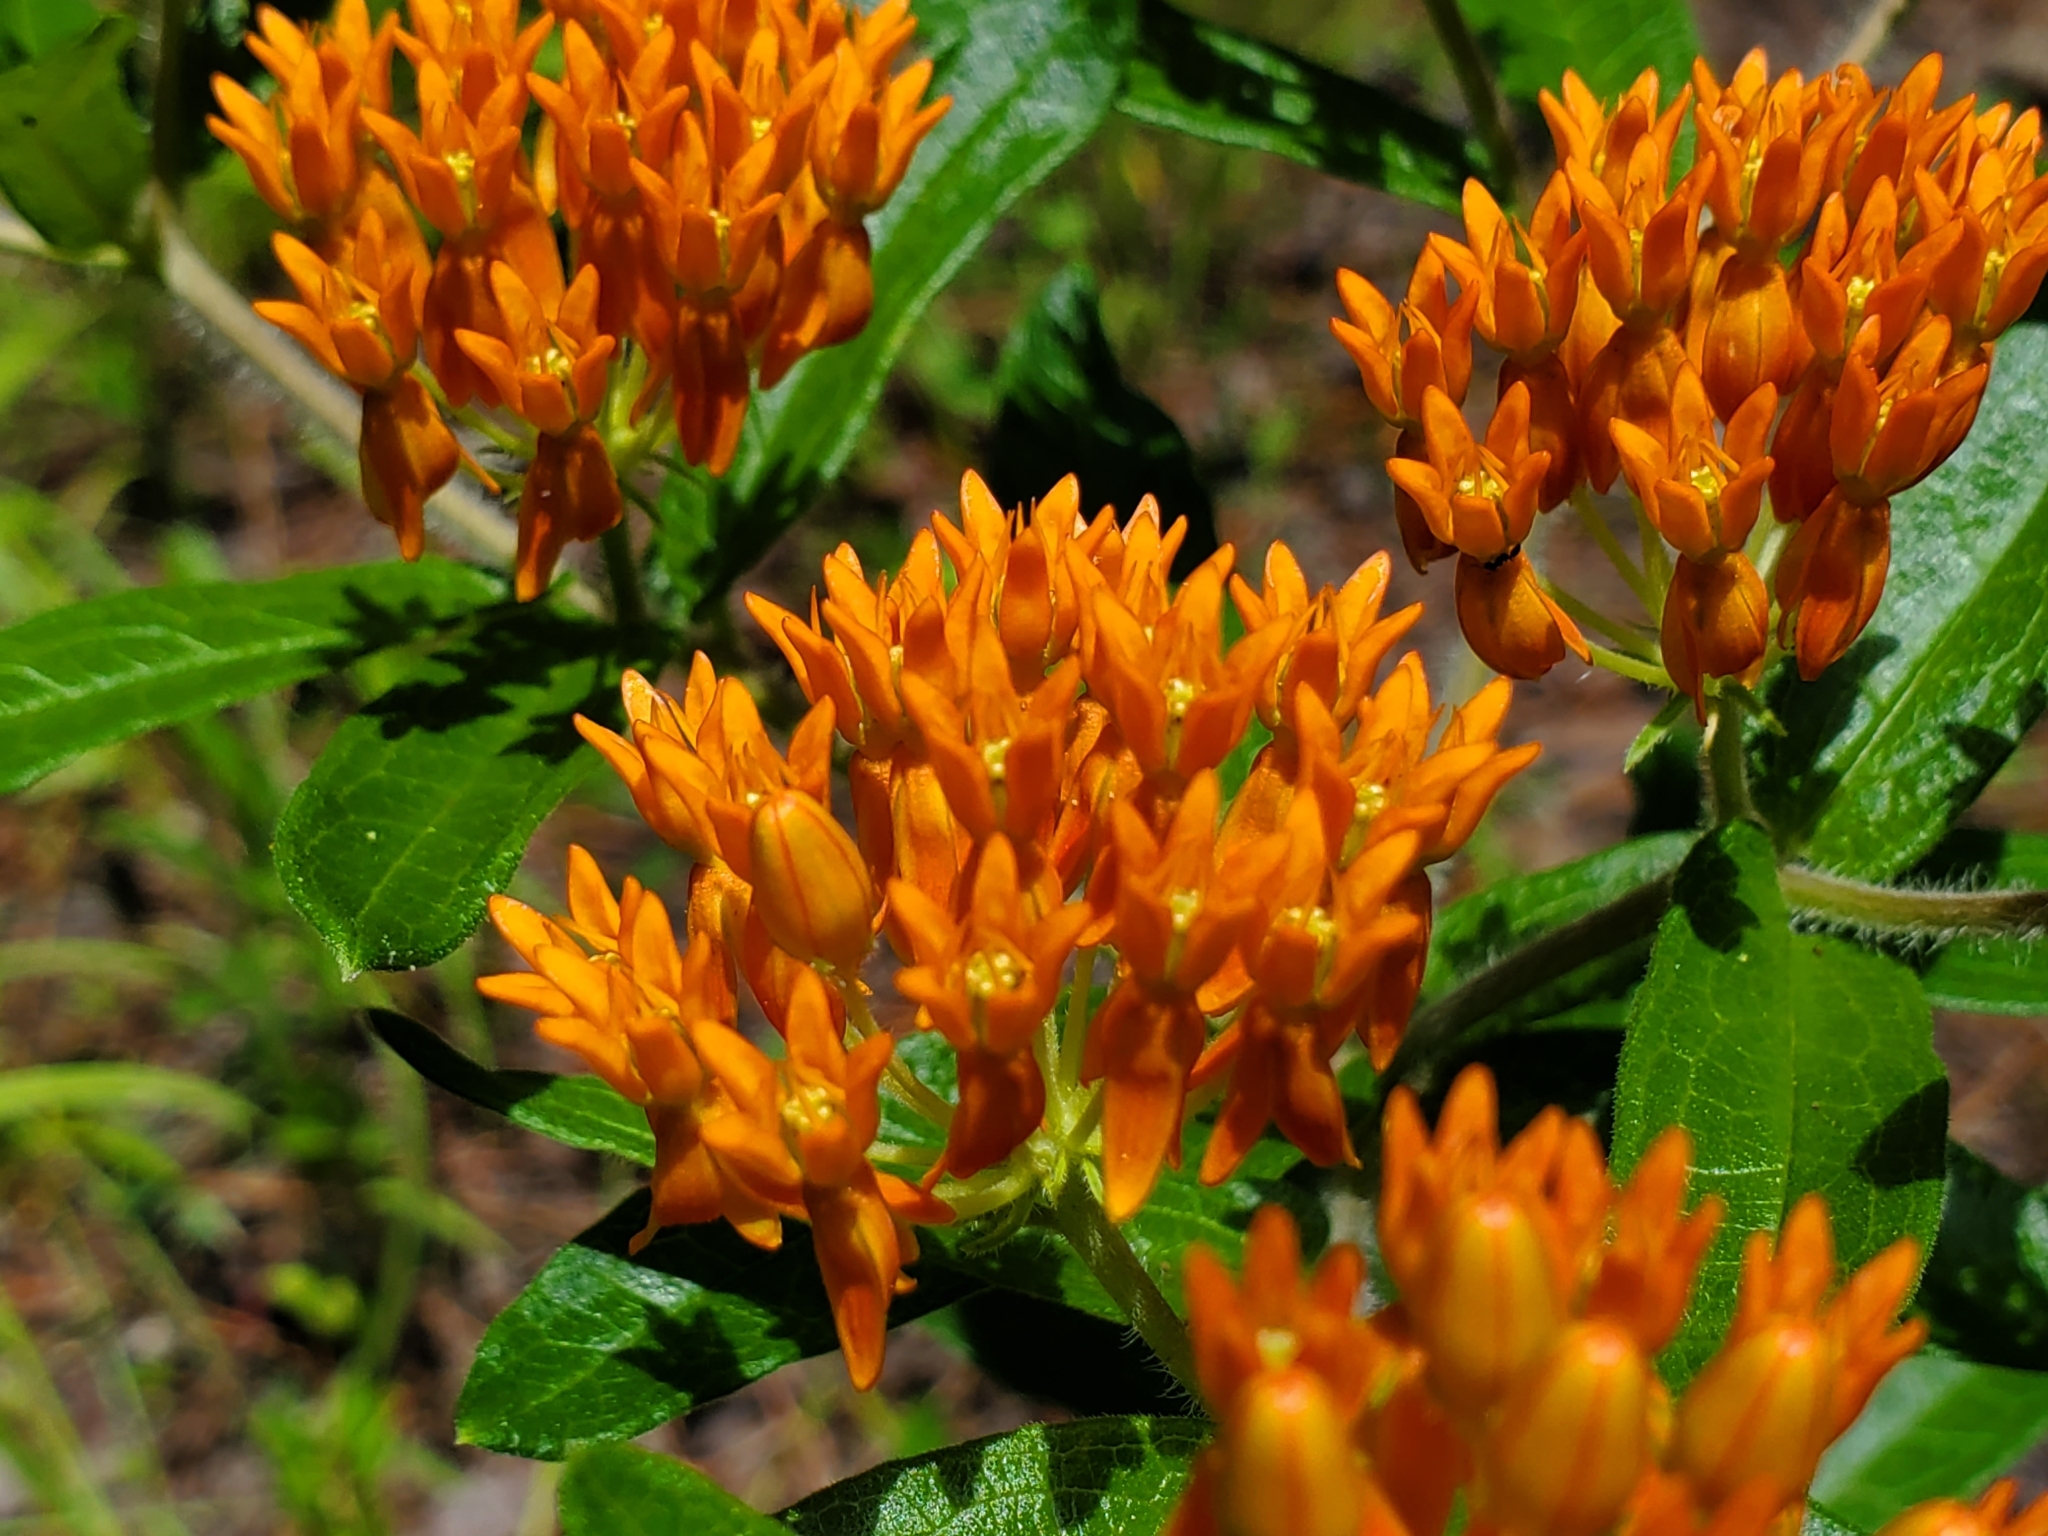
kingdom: Plantae
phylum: Tracheophyta
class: Magnoliopsida
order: Gentianales
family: Apocynaceae
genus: Asclepias
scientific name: Asclepias tuberosa
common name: Butterfly milkweed
